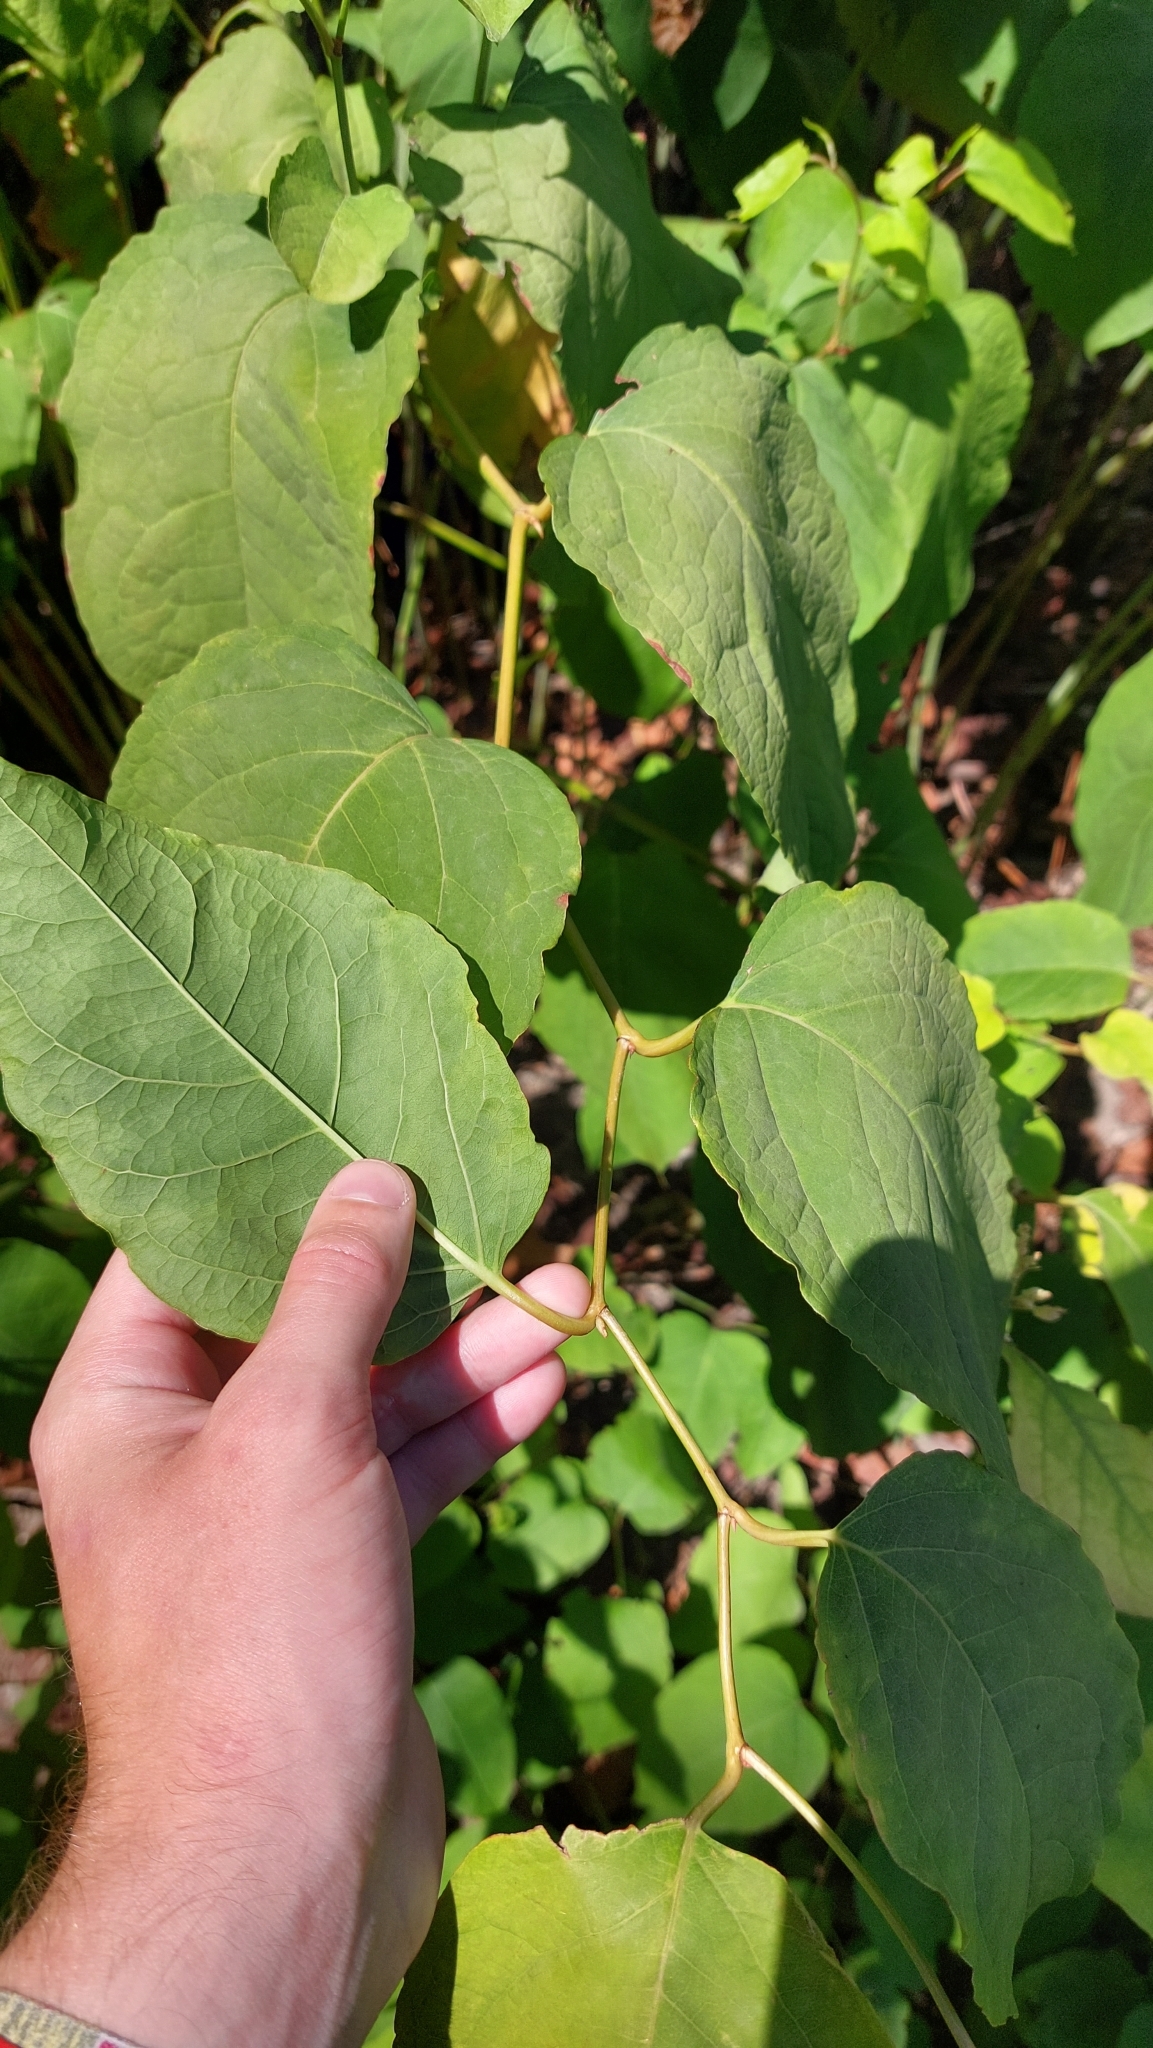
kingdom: Plantae
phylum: Tracheophyta
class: Magnoliopsida
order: Caryophyllales
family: Polygonaceae
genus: Reynoutria
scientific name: Reynoutria bohemica
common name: Bohemian knotweed
